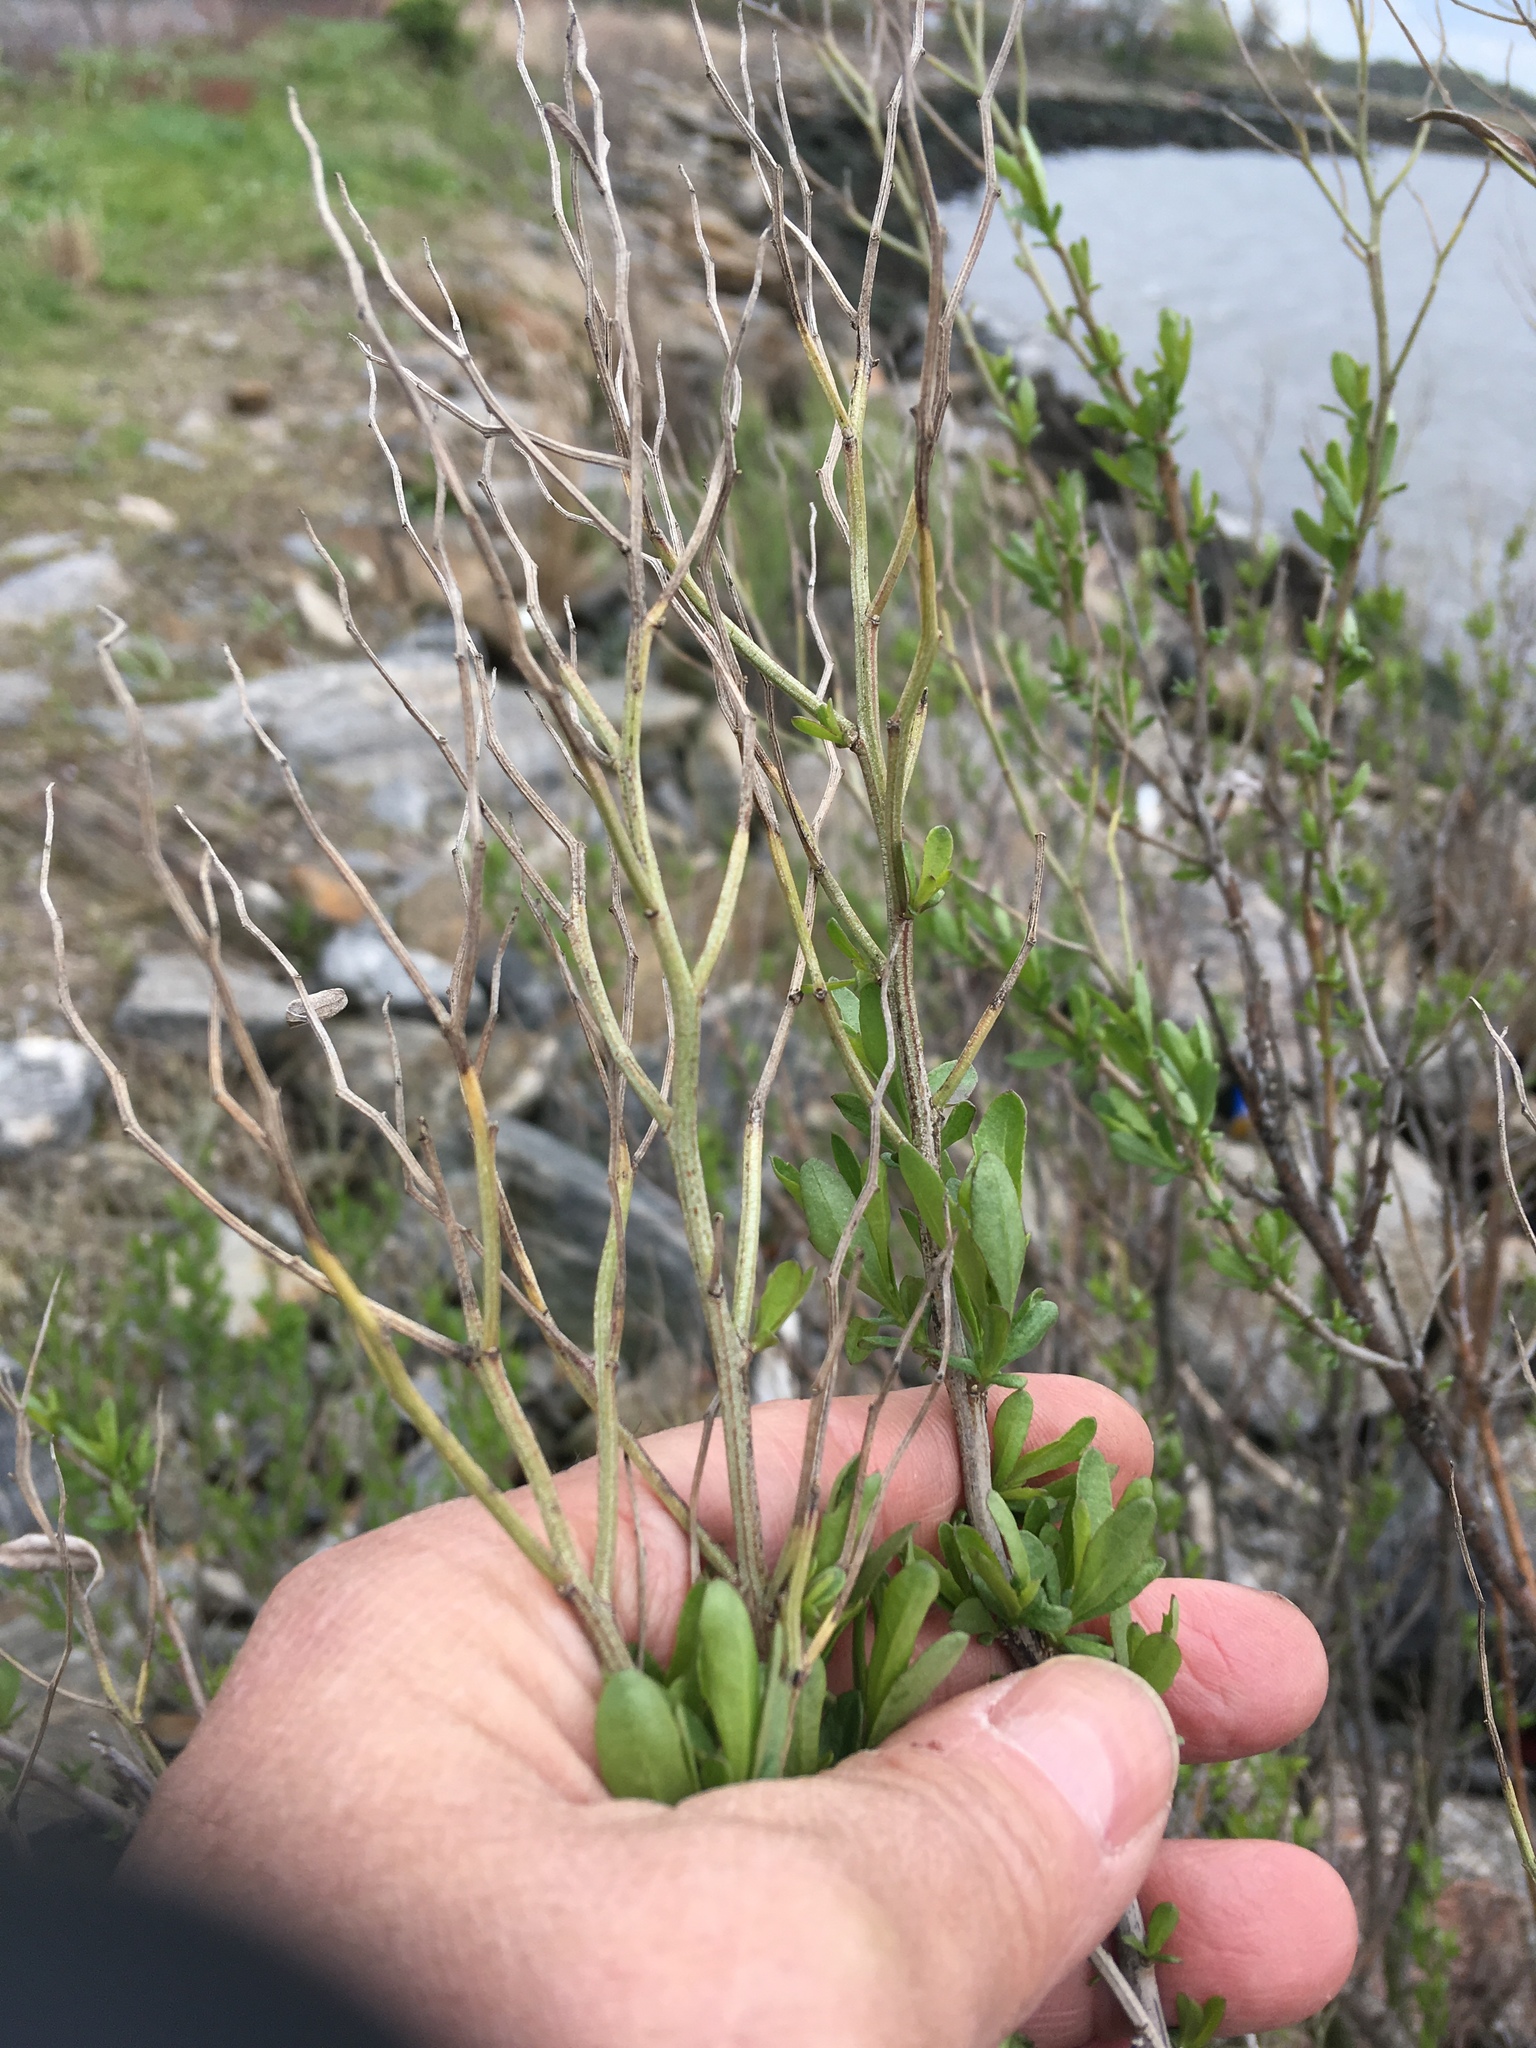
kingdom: Plantae
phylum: Tracheophyta
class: Magnoliopsida
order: Asterales
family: Asteraceae
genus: Baccharis
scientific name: Baccharis halimifolia
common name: Eastern baccharis
